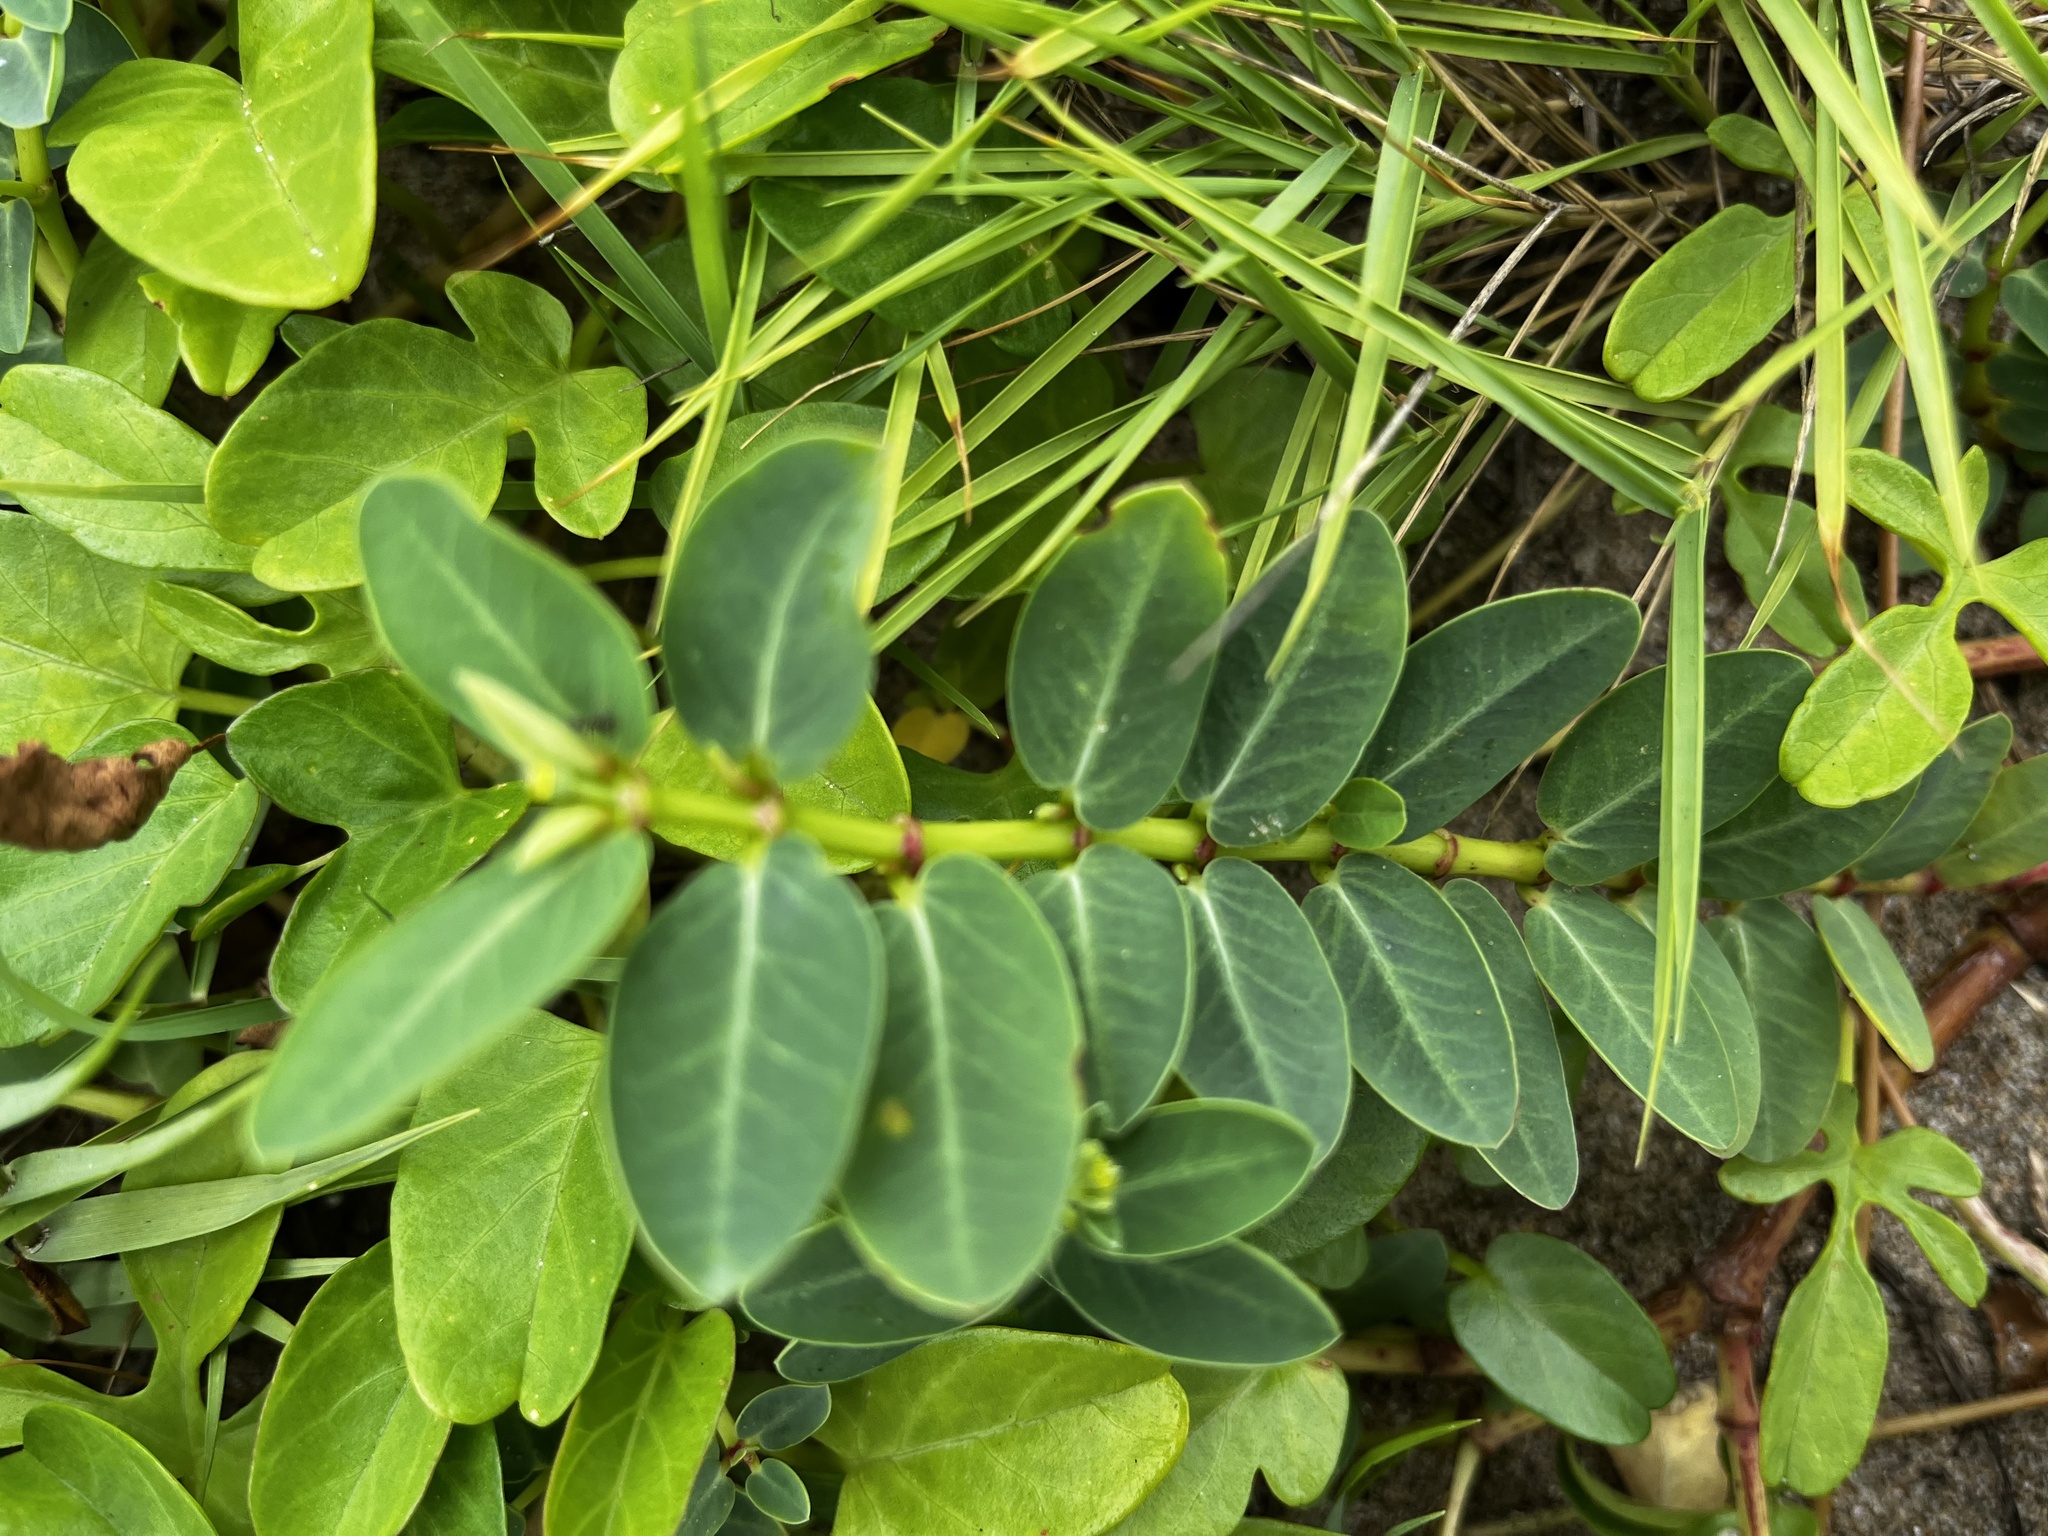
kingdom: Plantae
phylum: Tracheophyta
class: Magnoliopsida
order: Malpighiales
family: Euphorbiaceae
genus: Euphorbia
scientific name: Euphorbia atoto
